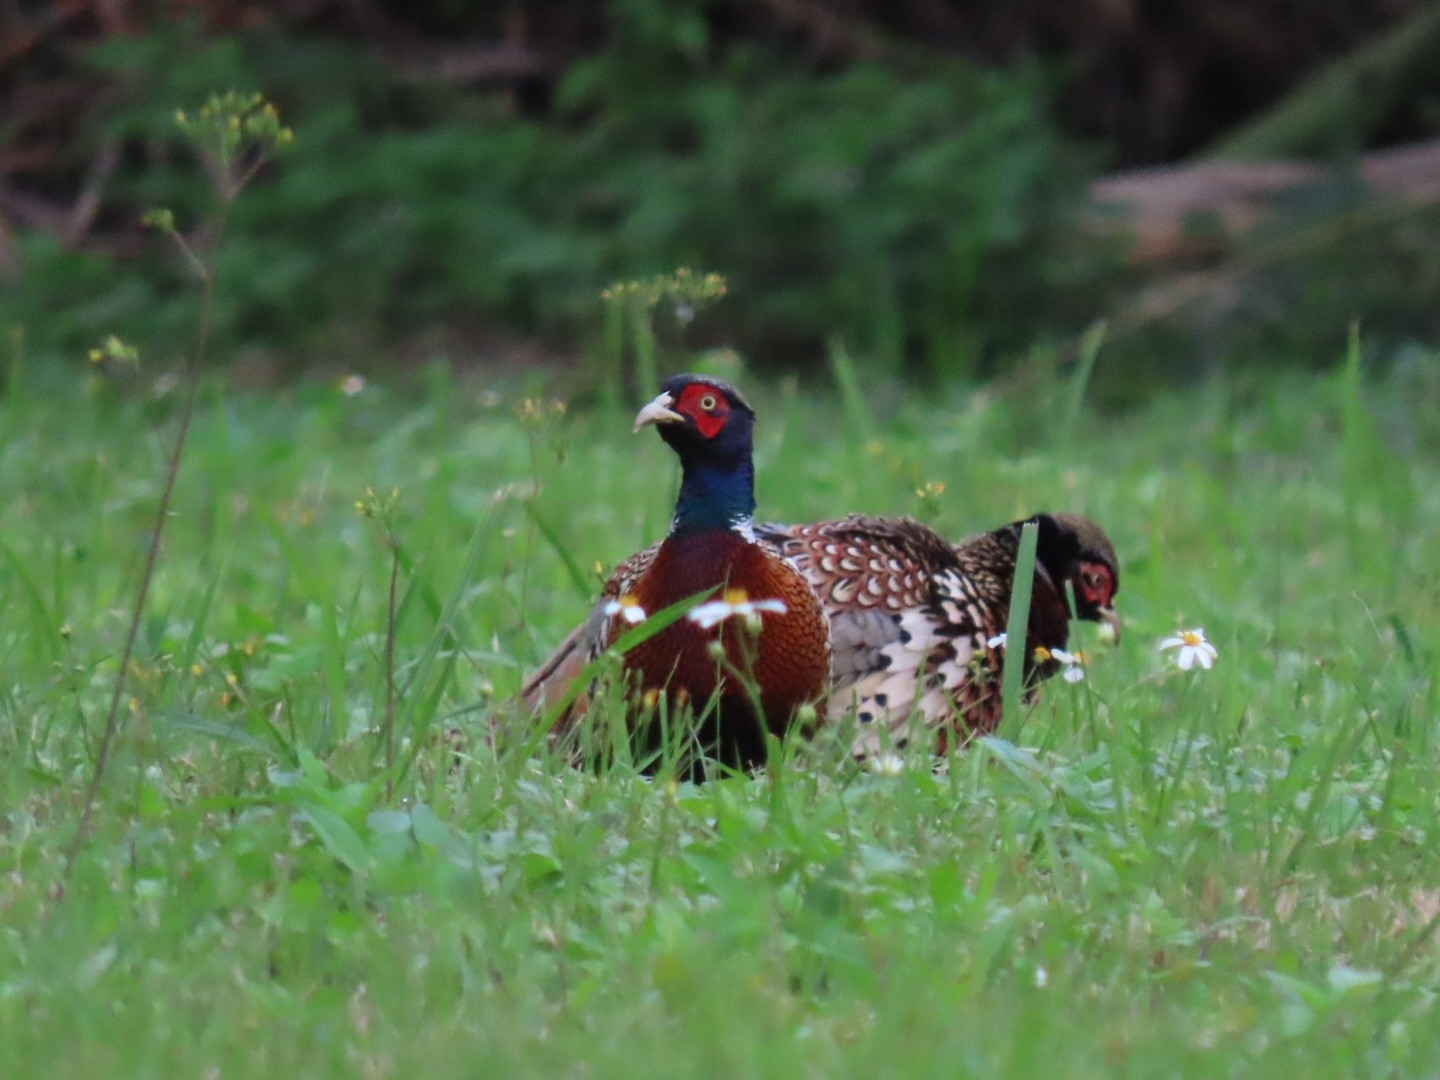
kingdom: Animalia
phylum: Chordata
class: Aves
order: Galliformes
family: Phasianidae
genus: Phasianus
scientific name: Phasianus colchicus
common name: Common pheasant
